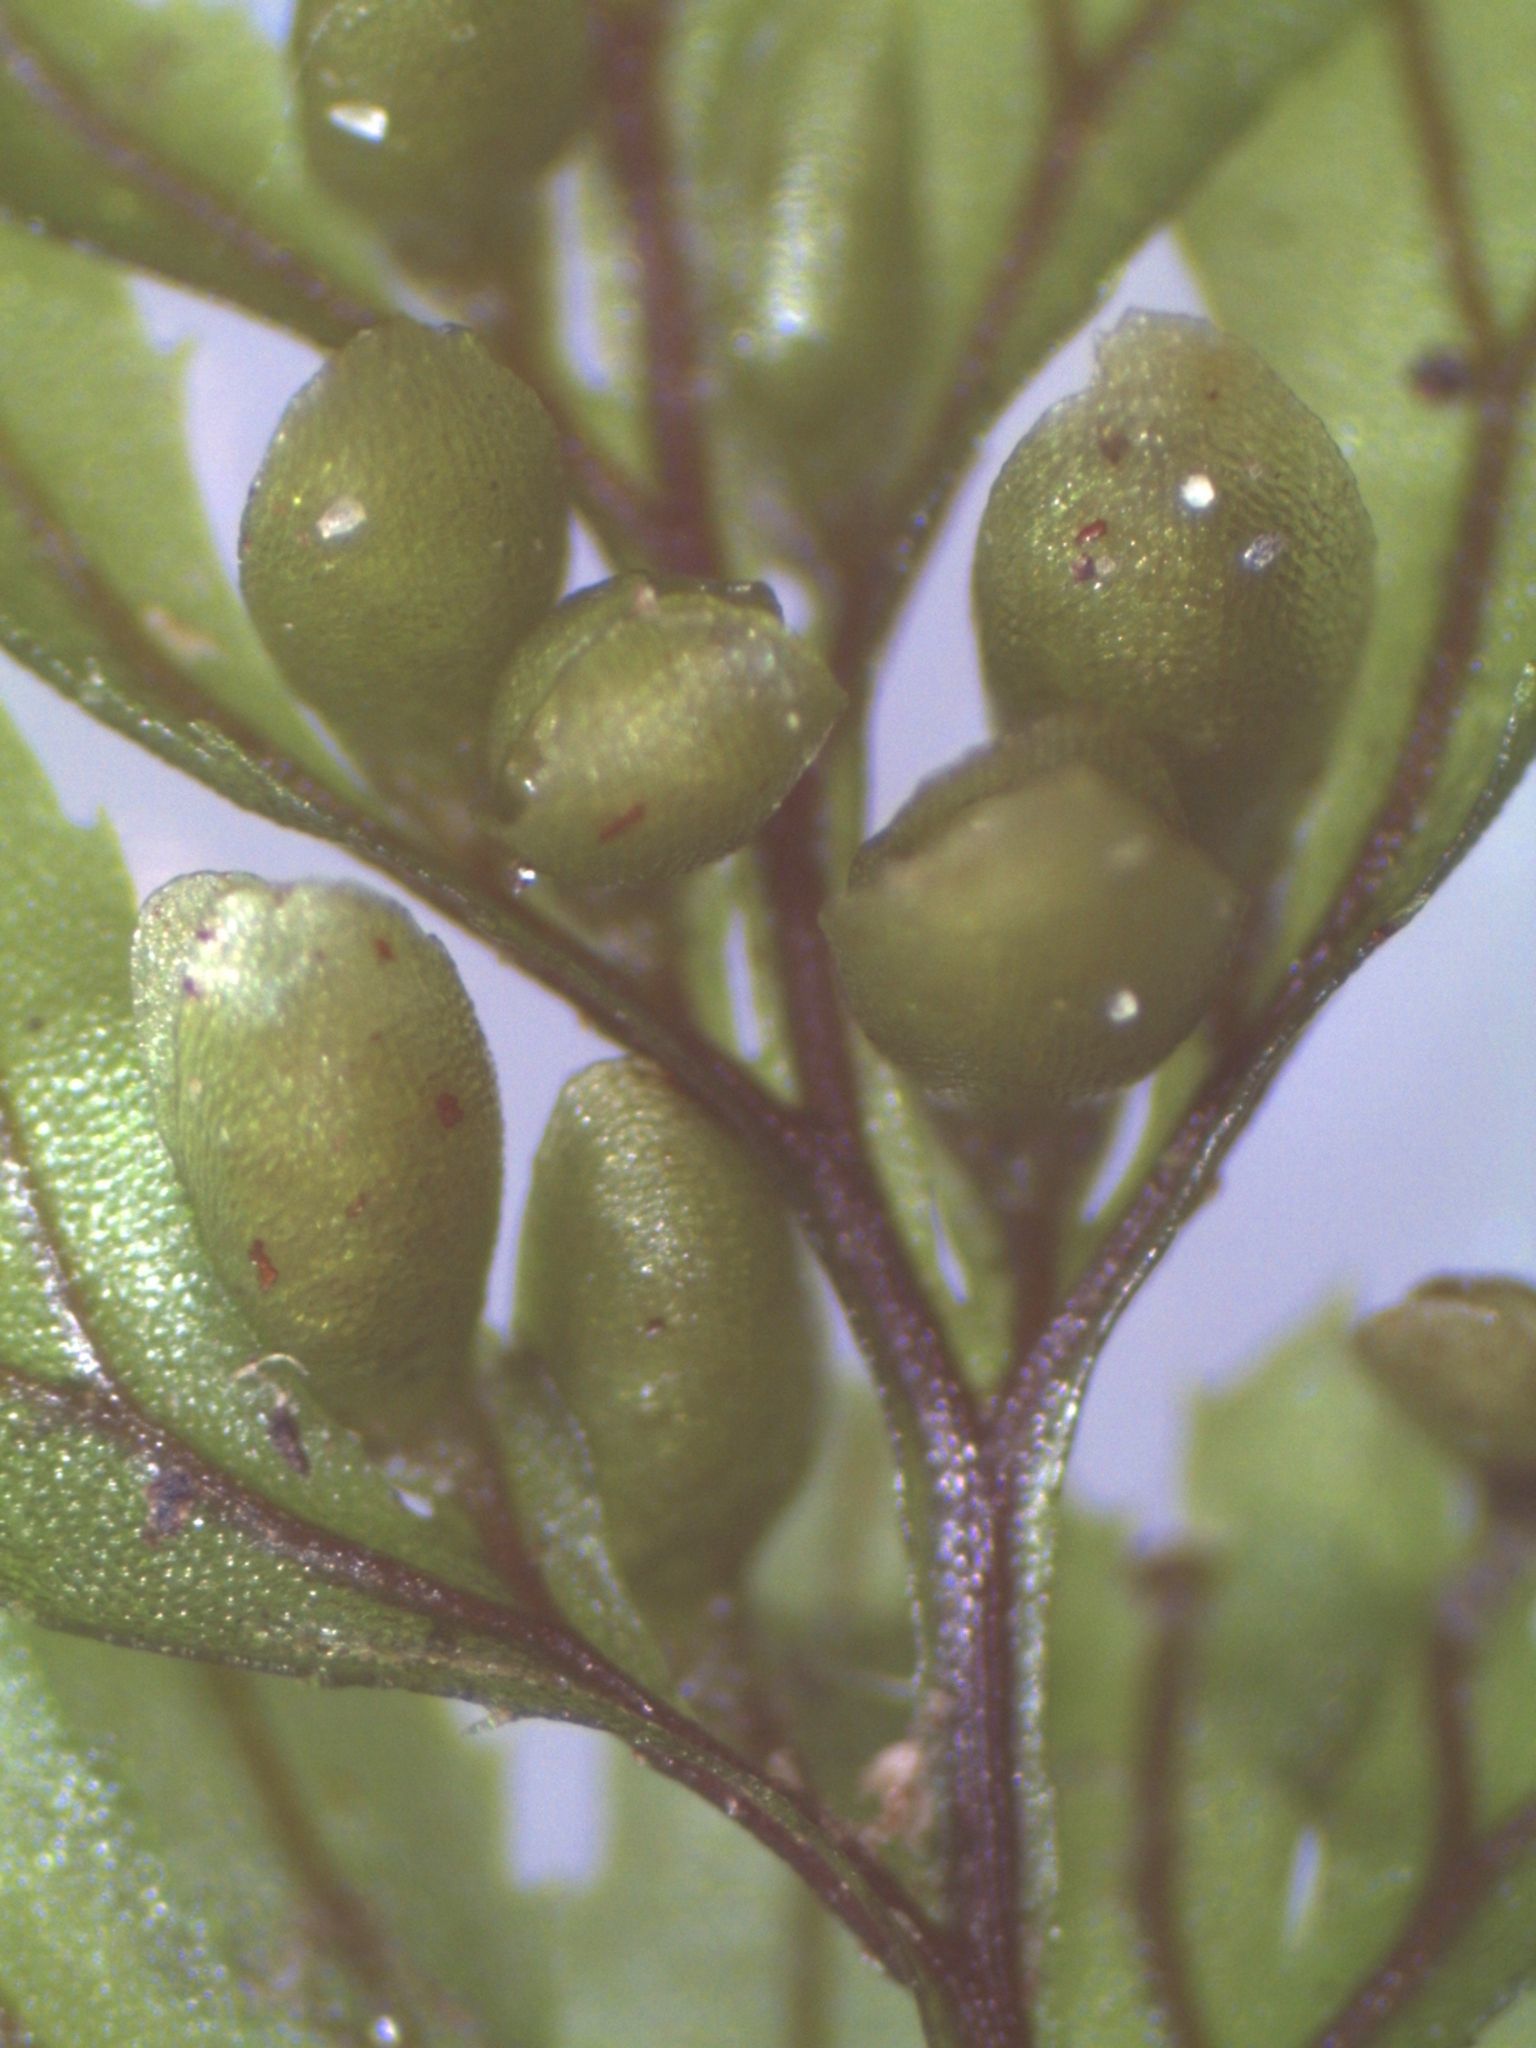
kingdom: Plantae
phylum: Tracheophyta
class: Polypodiopsida
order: Hymenophyllales
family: Hymenophyllaceae
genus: Hymenophyllum
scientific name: Hymenophyllum peltatum
